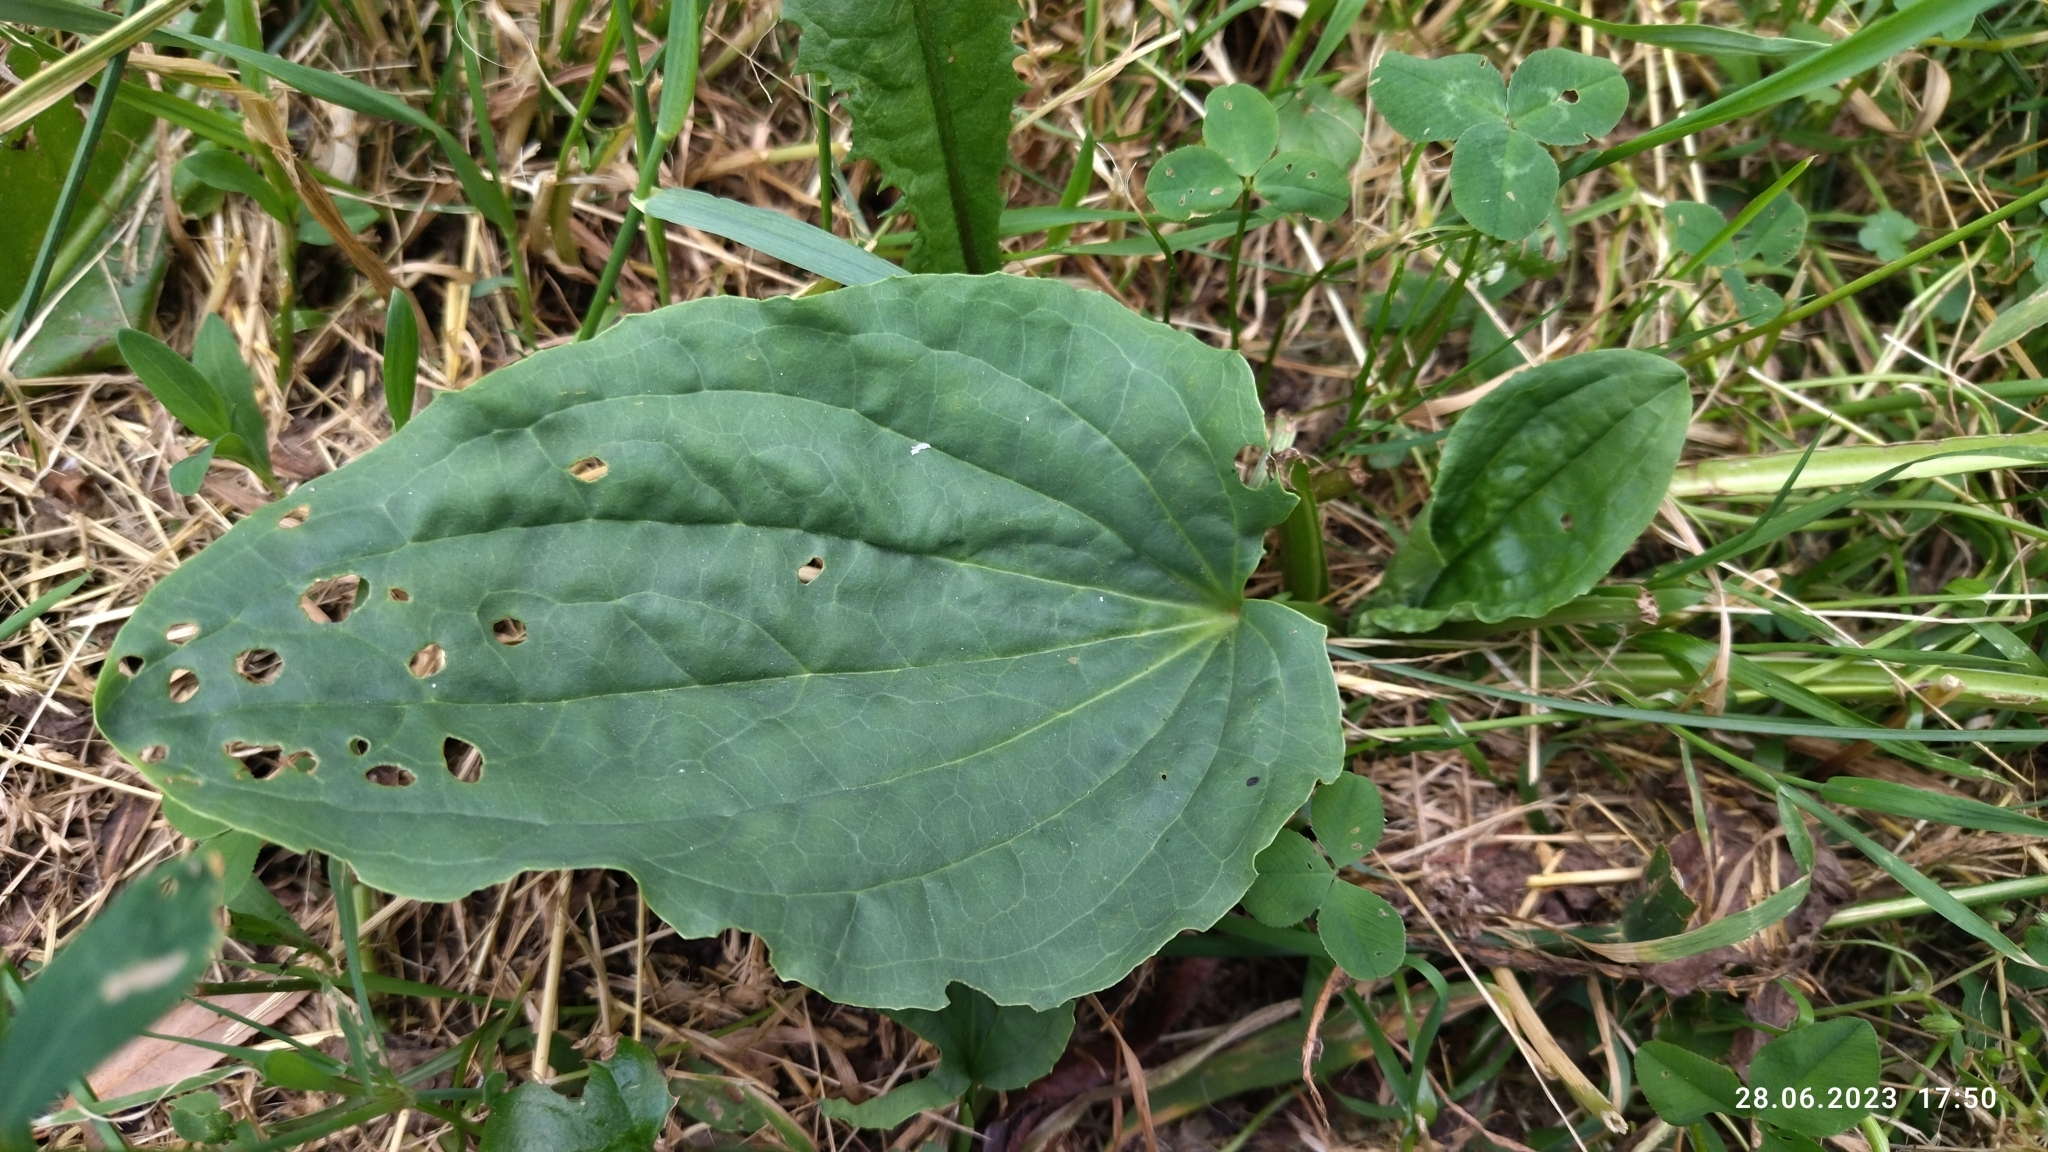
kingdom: Plantae
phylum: Tracheophyta
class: Magnoliopsida
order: Lamiales
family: Plantaginaceae
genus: Plantago
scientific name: Plantago major
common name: Common plantain
